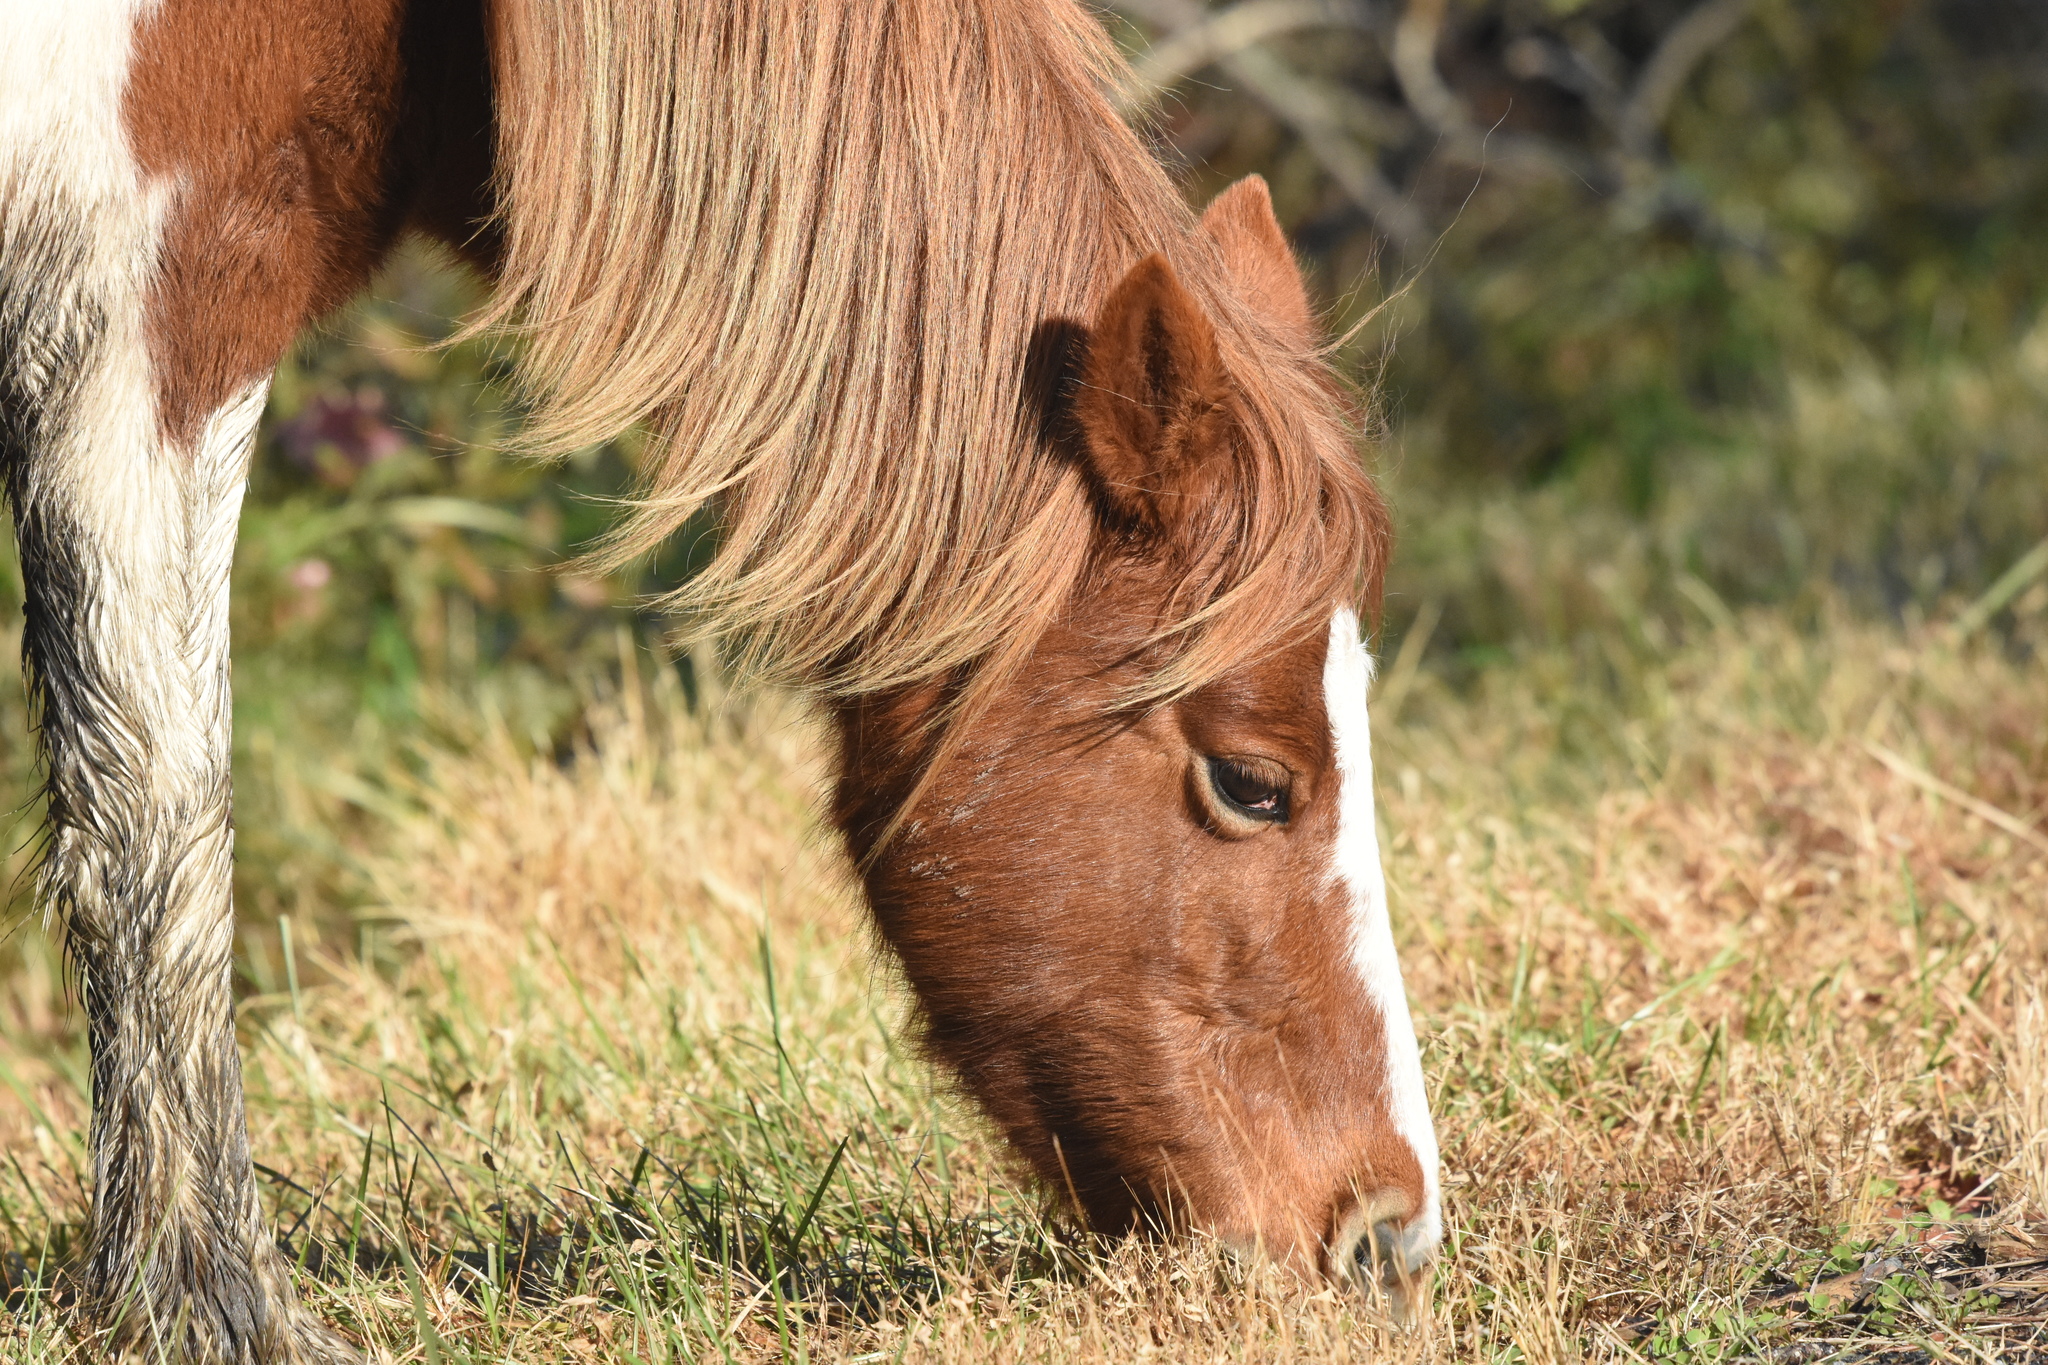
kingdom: Animalia
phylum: Chordata
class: Mammalia
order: Perissodactyla
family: Equidae
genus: Equus
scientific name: Equus caballus
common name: Horse
